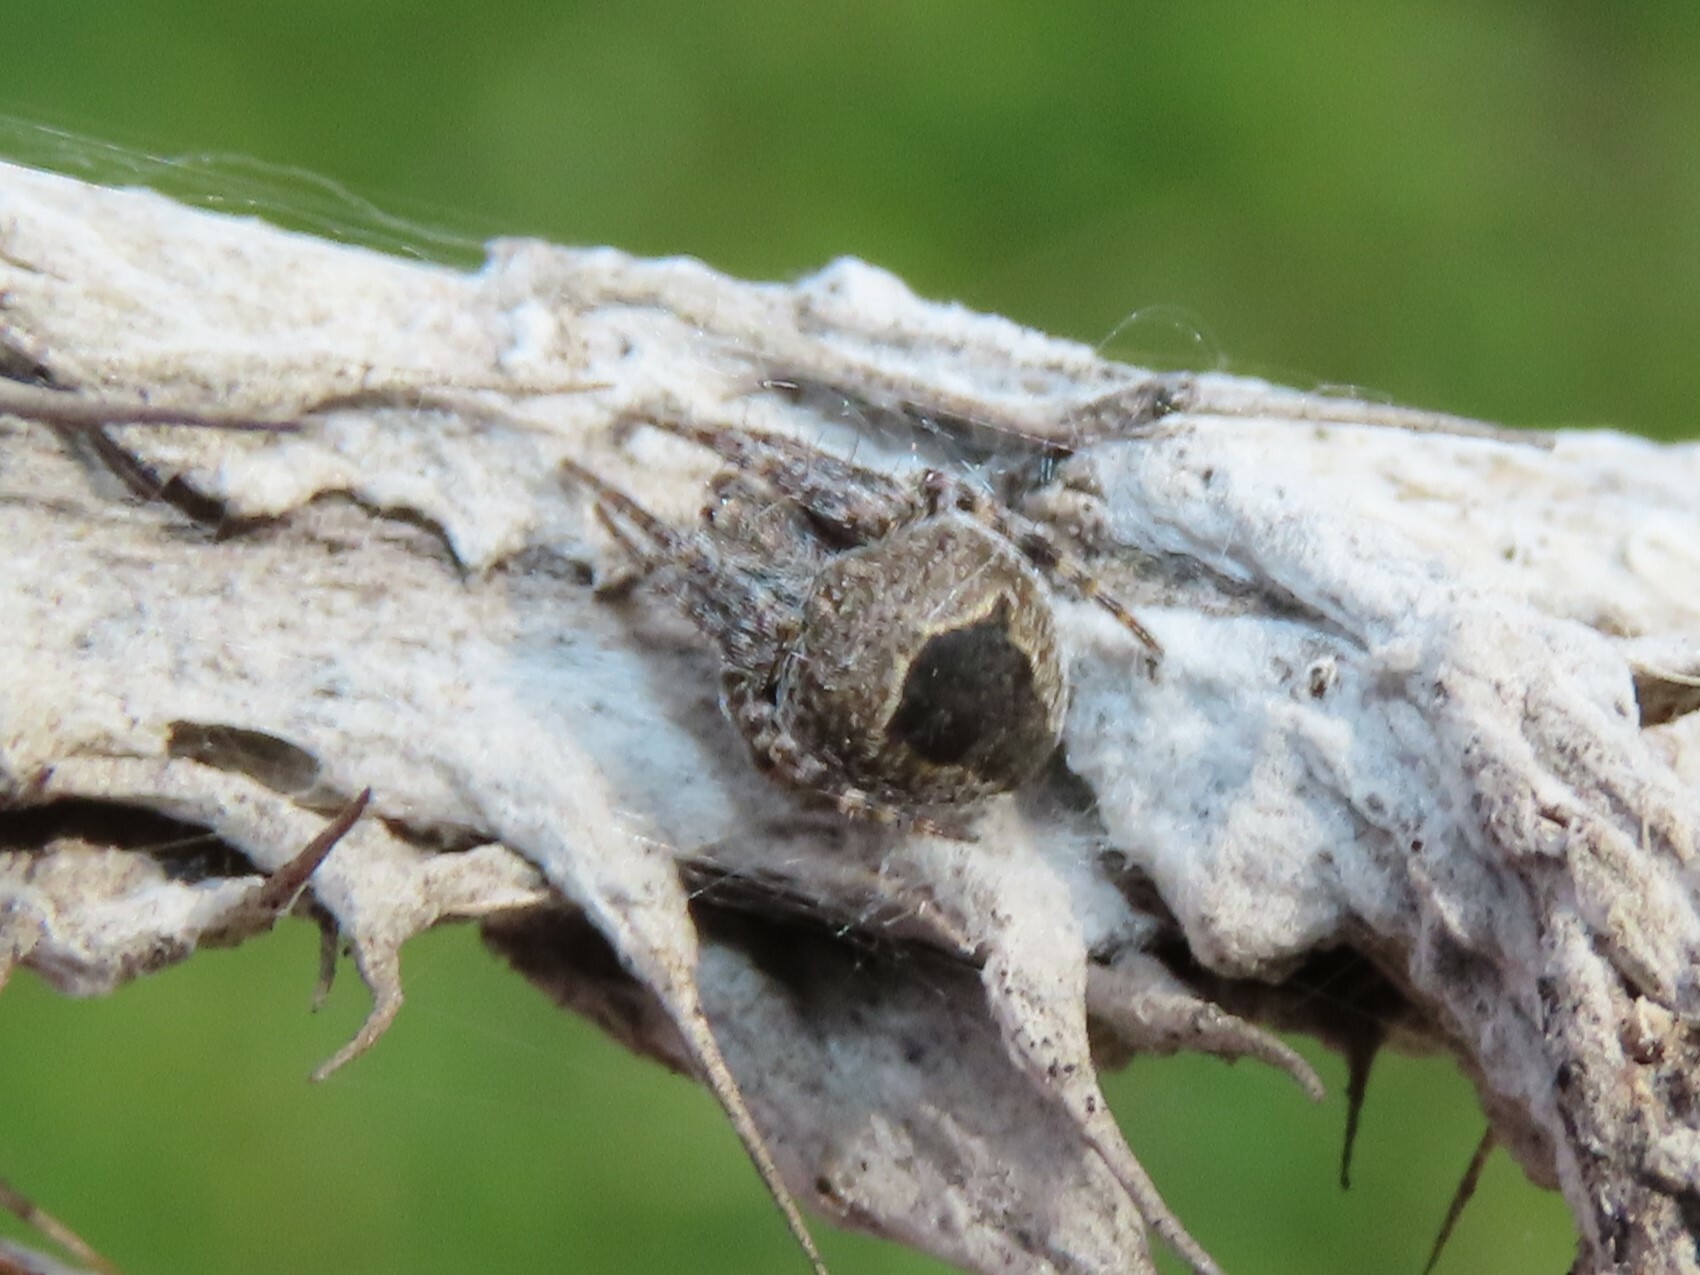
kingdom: Animalia
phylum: Arthropoda
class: Arachnida
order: Araneae
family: Araneidae
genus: Agalenatea
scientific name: Agalenatea redii
